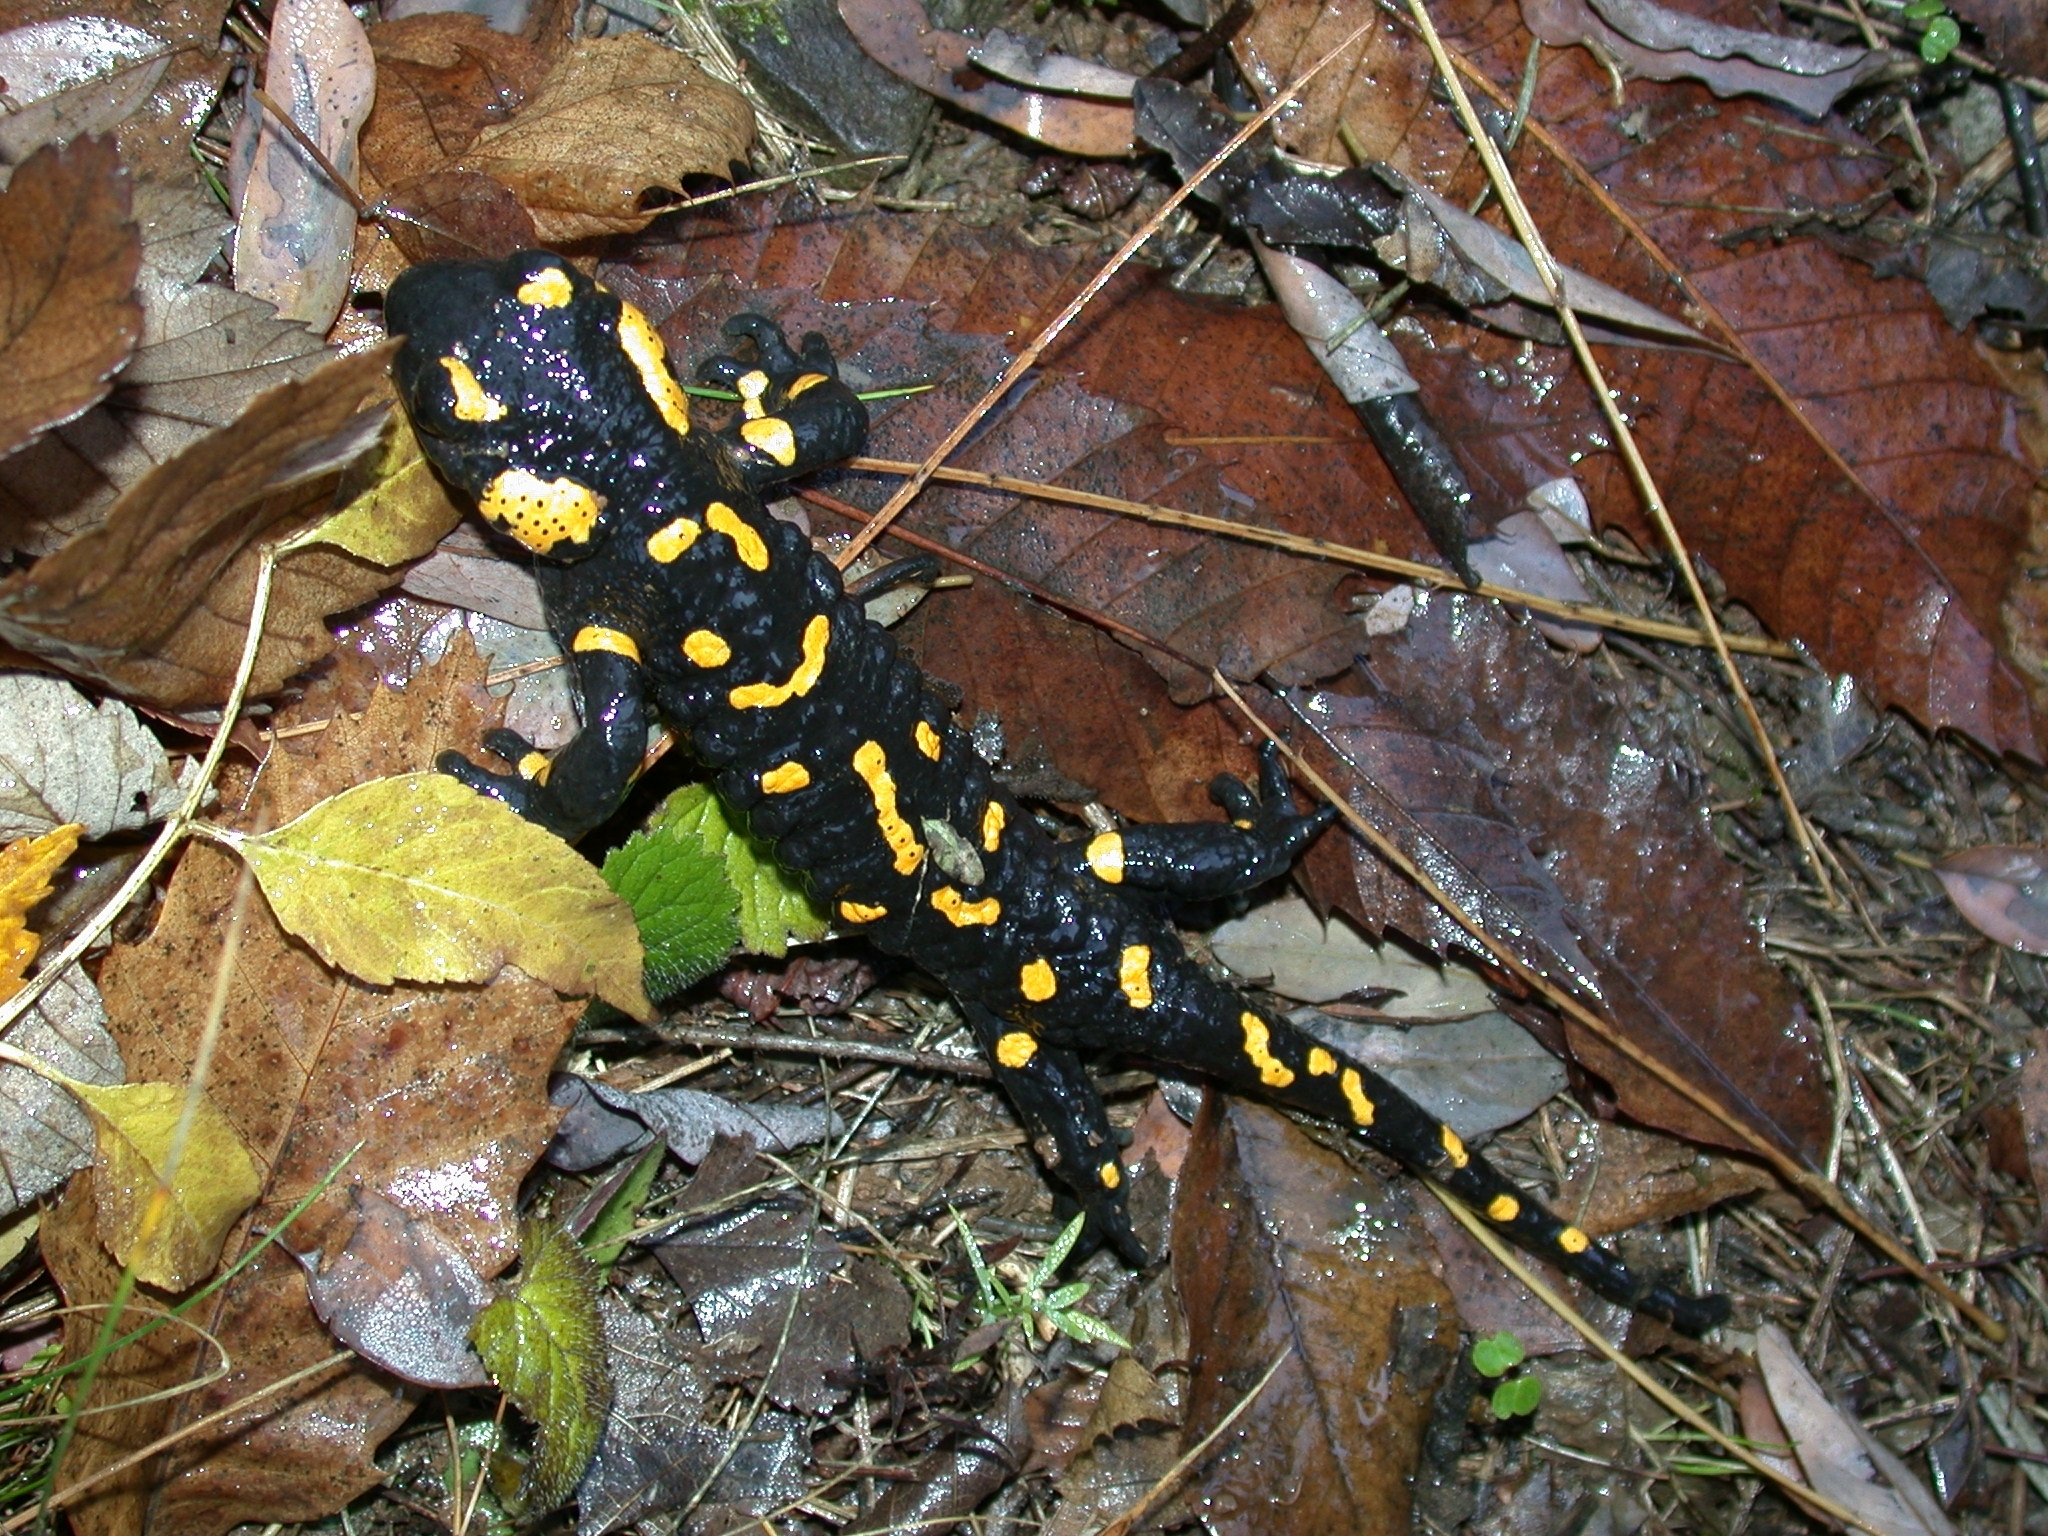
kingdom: Animalia
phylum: Chordata
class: Amphibia
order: Caudata
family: Salamandridae
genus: Salamandra
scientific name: Salamandra salamandra
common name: Fire salamander
